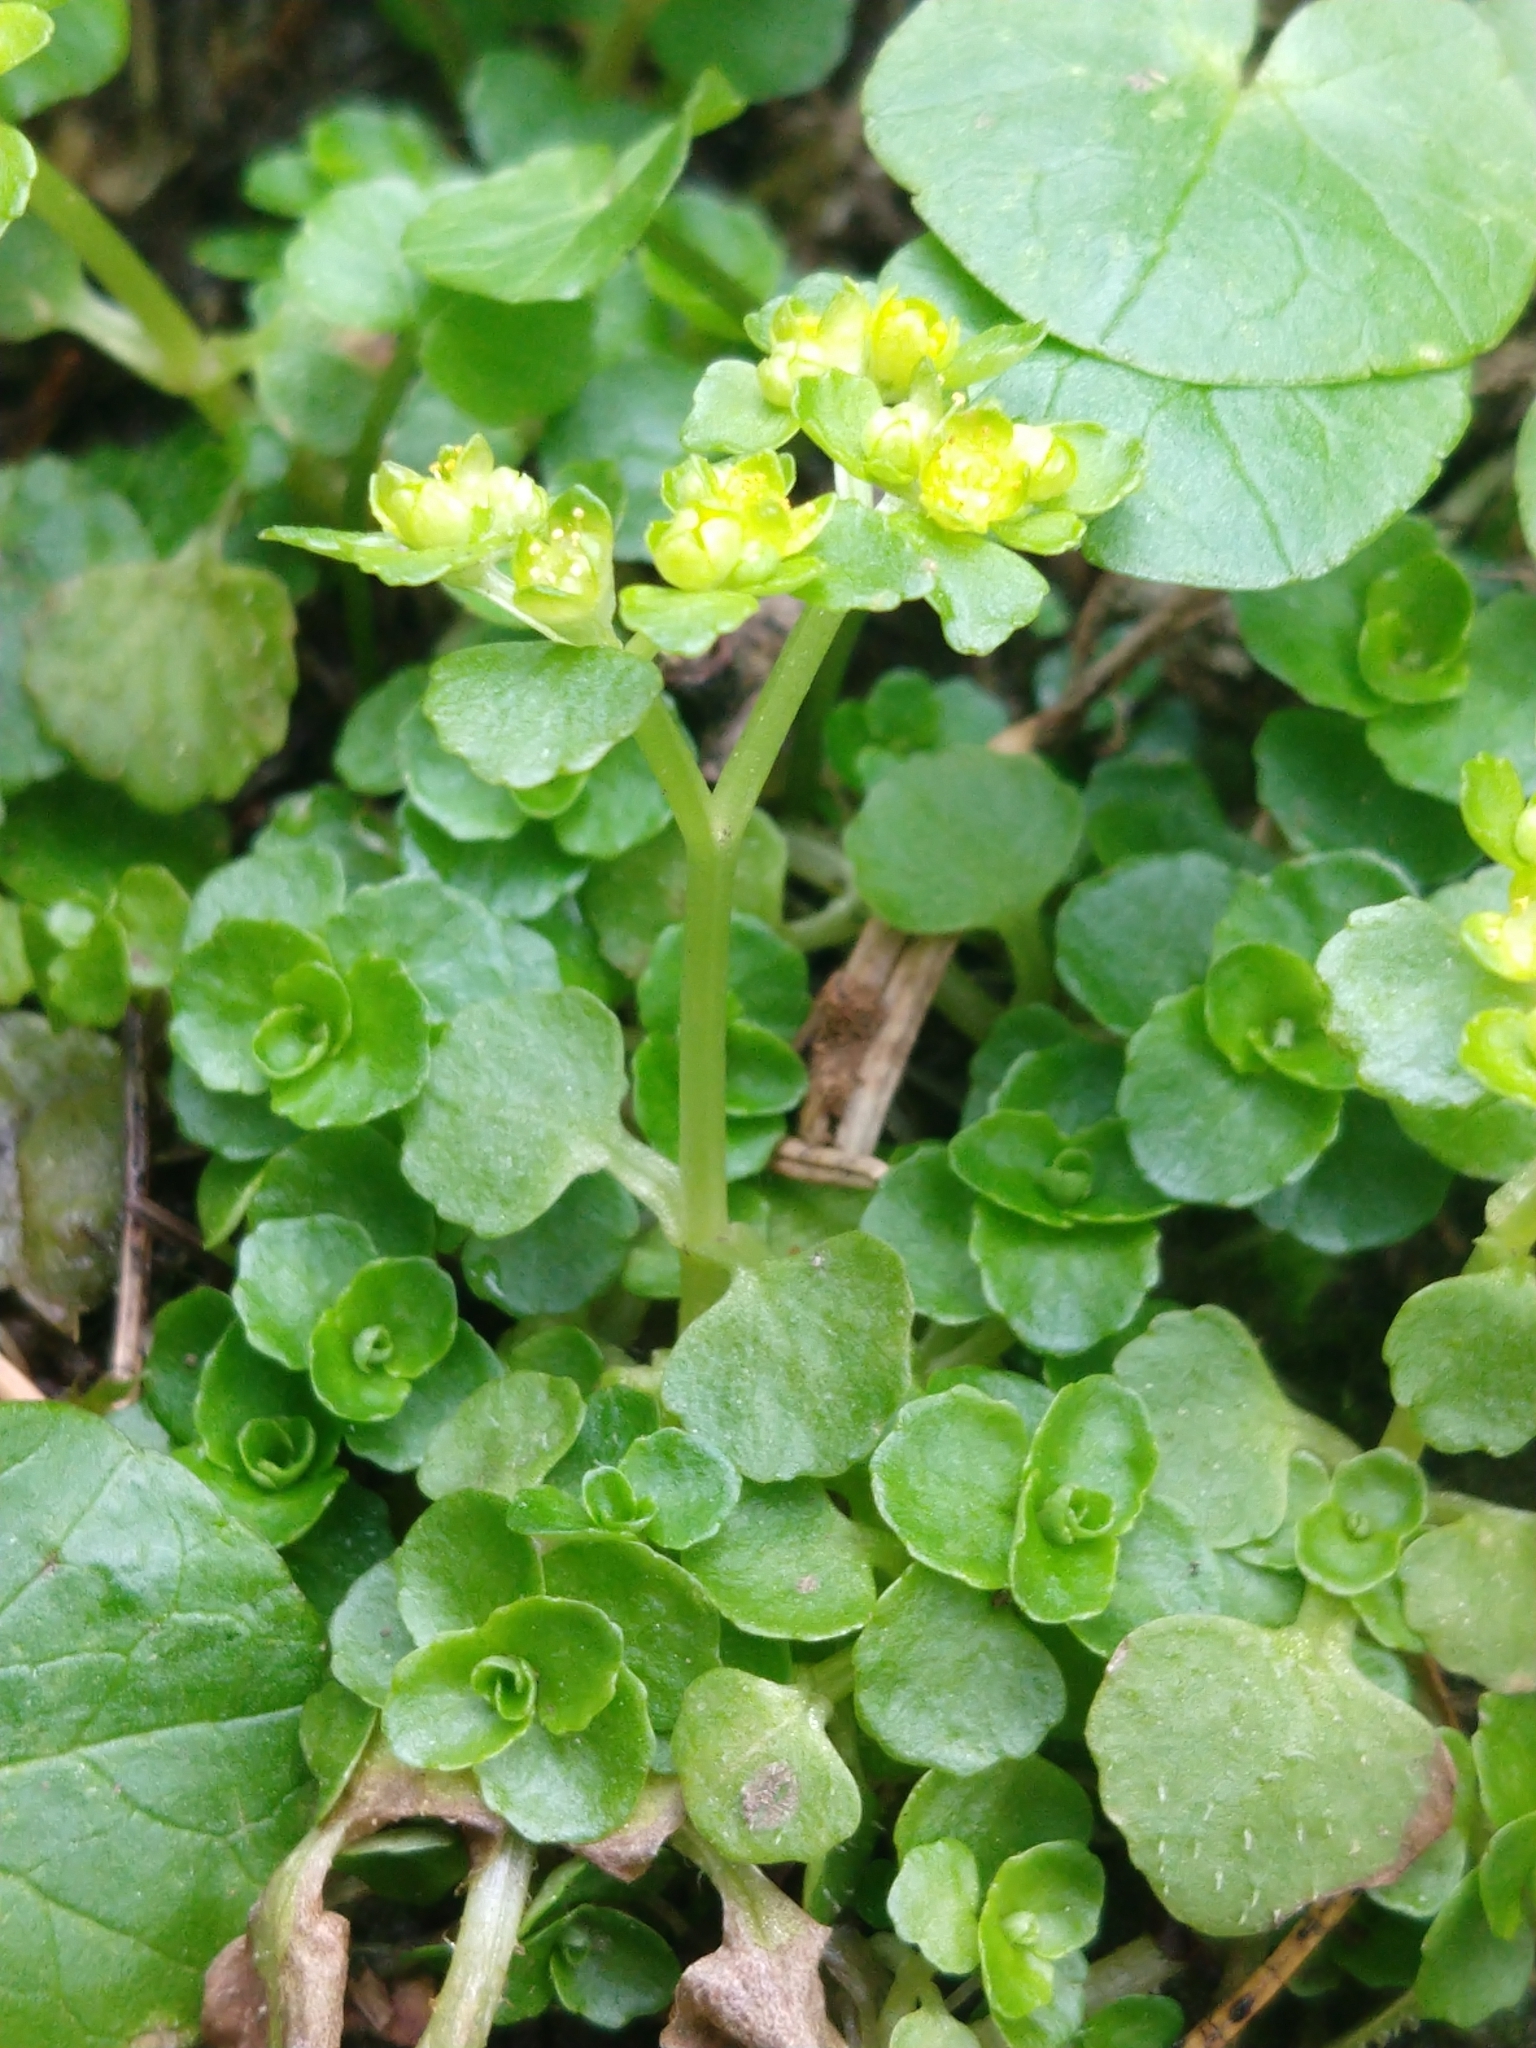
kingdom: Plantae
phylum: Tracheophyta
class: Magnoliopsida
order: Saxifragales
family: Saxifragaceae
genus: Chrysosplenium
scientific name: Chrysosplenium oppositifolium
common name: Opposite-leaved golden-saxifrage
